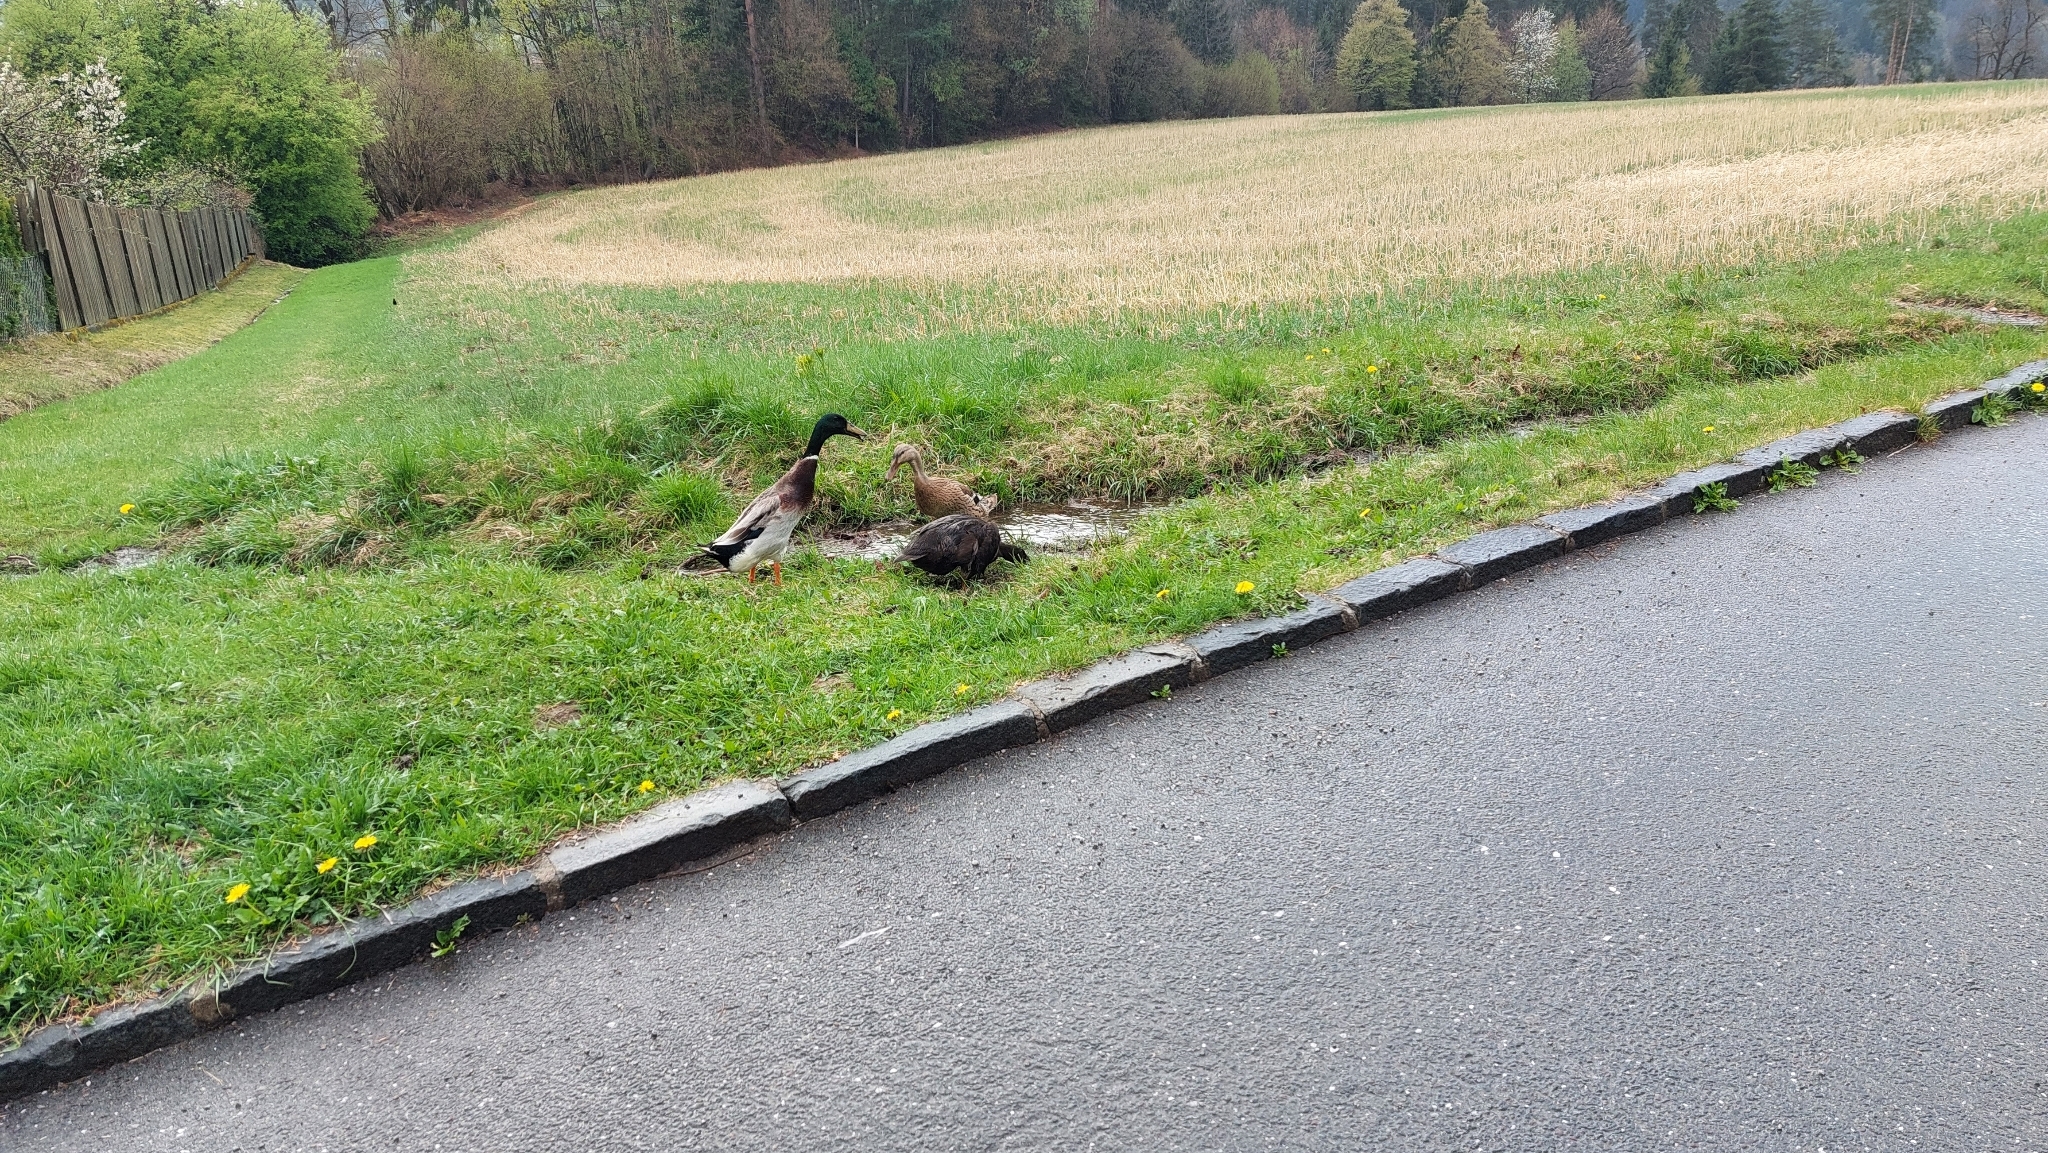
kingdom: Animalia
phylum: Chordata
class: Aves
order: Anseriformes
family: Anatidae
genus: Anas
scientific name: Anas platyrhynchos
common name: Mallard
